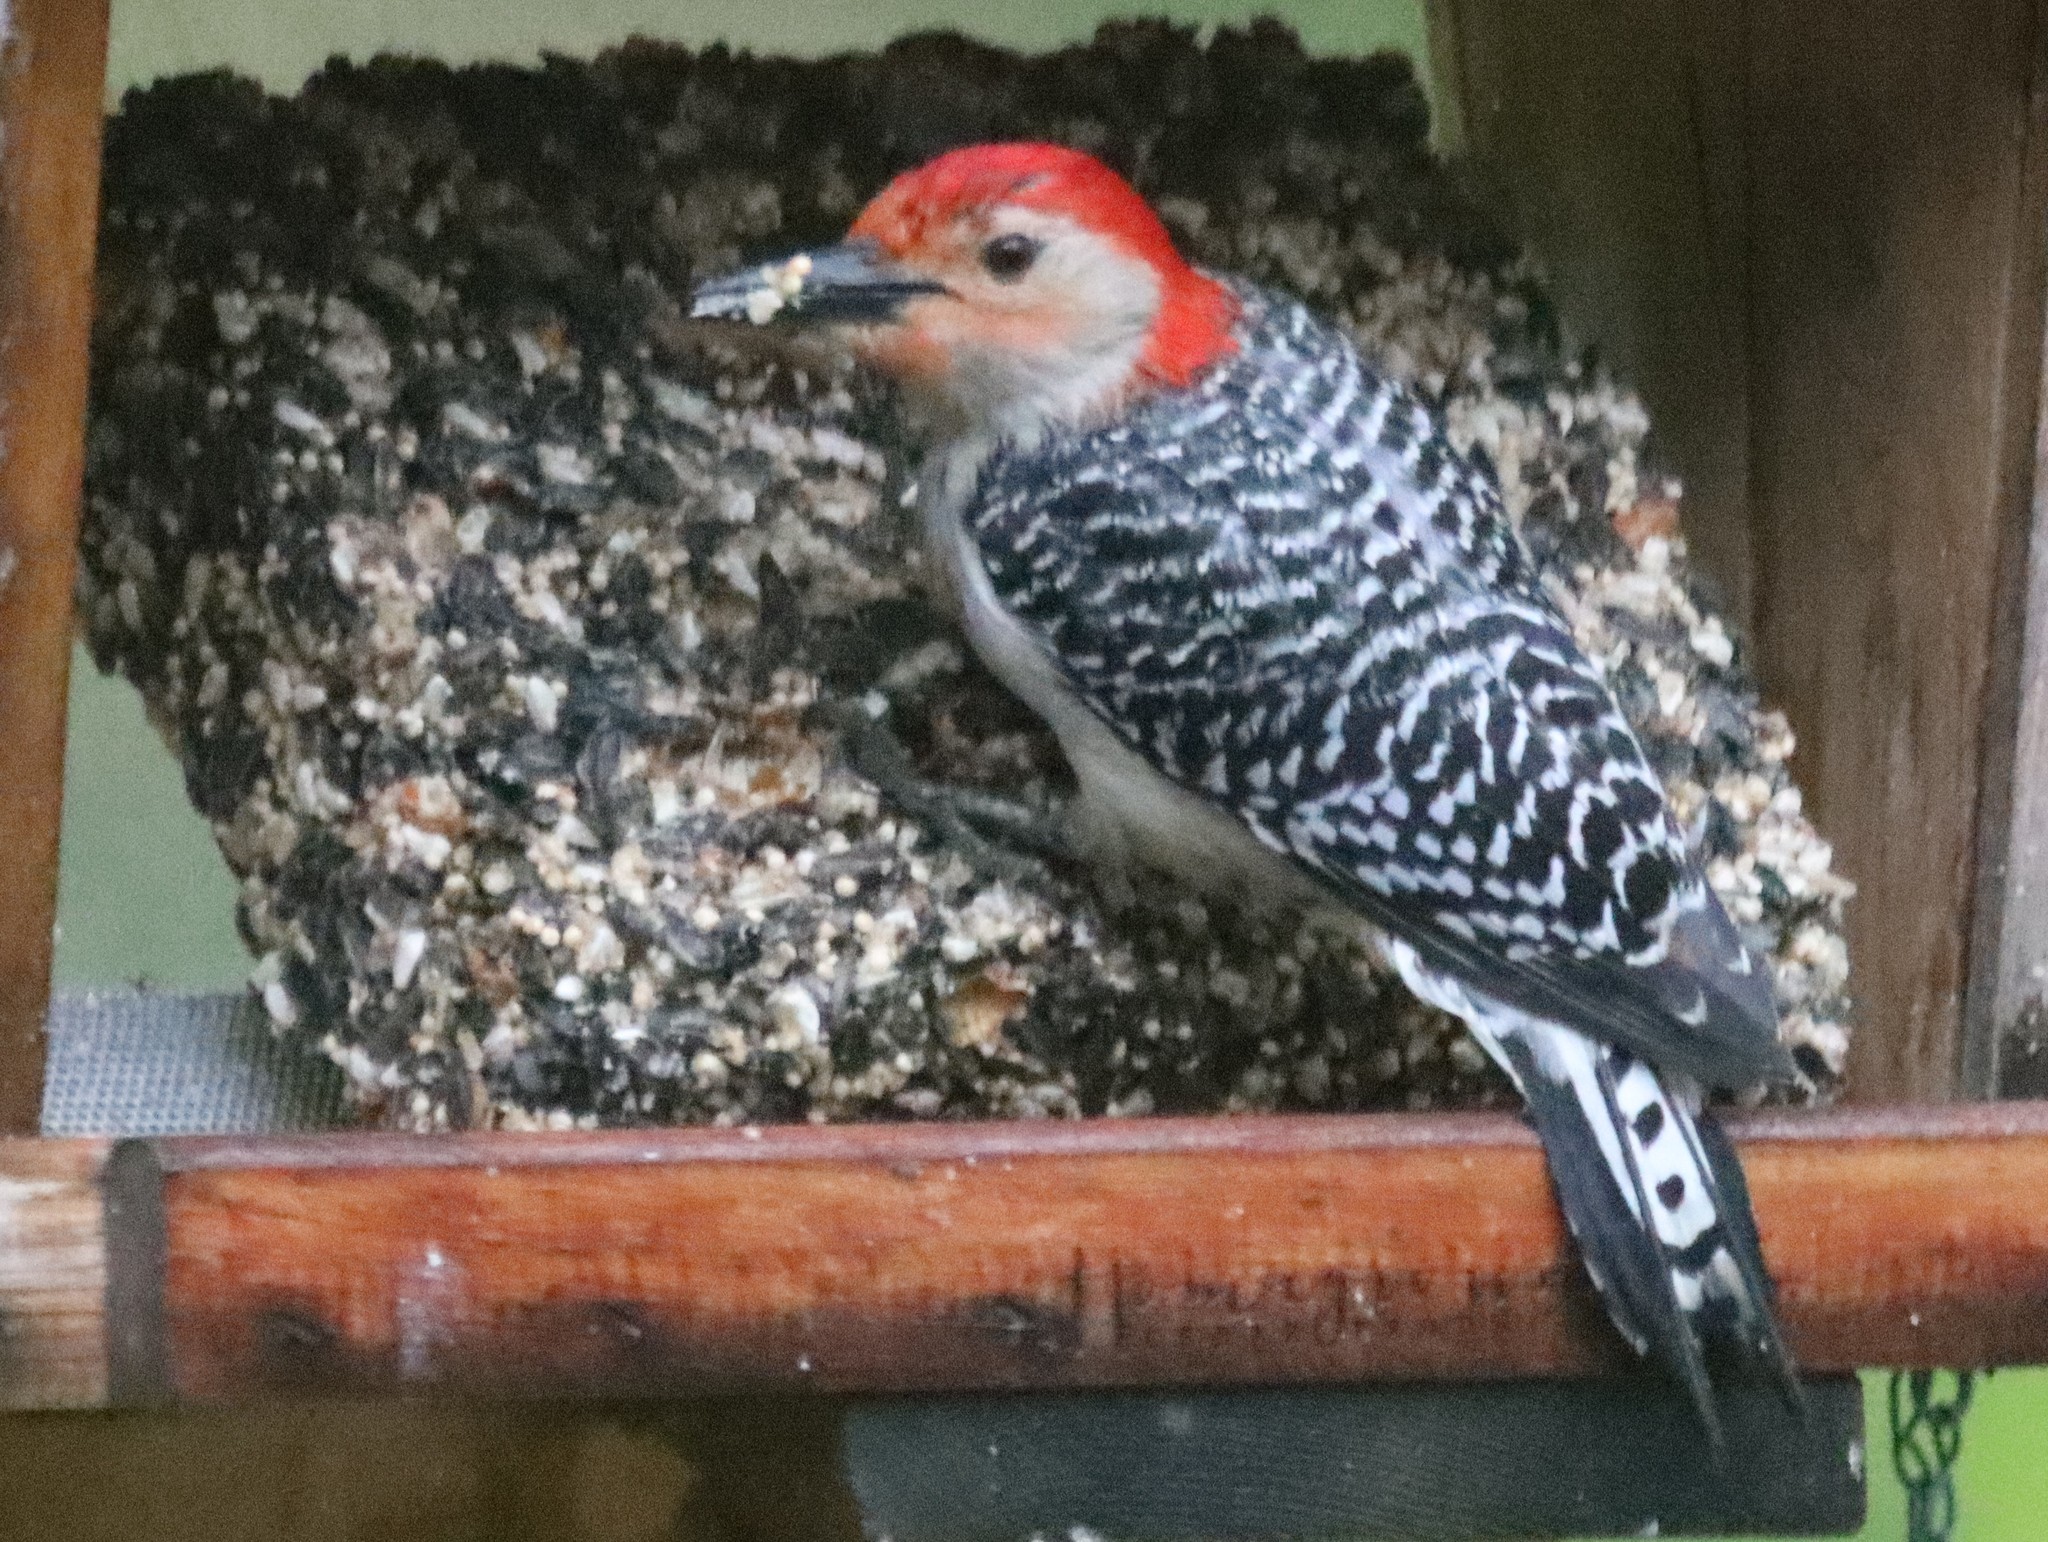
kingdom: Animalia
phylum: Chordata
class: Aves
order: Piciformes
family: Picidae
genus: Melanerpes
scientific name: Melanerpes carolinus
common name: Red-bellied woodpecker
